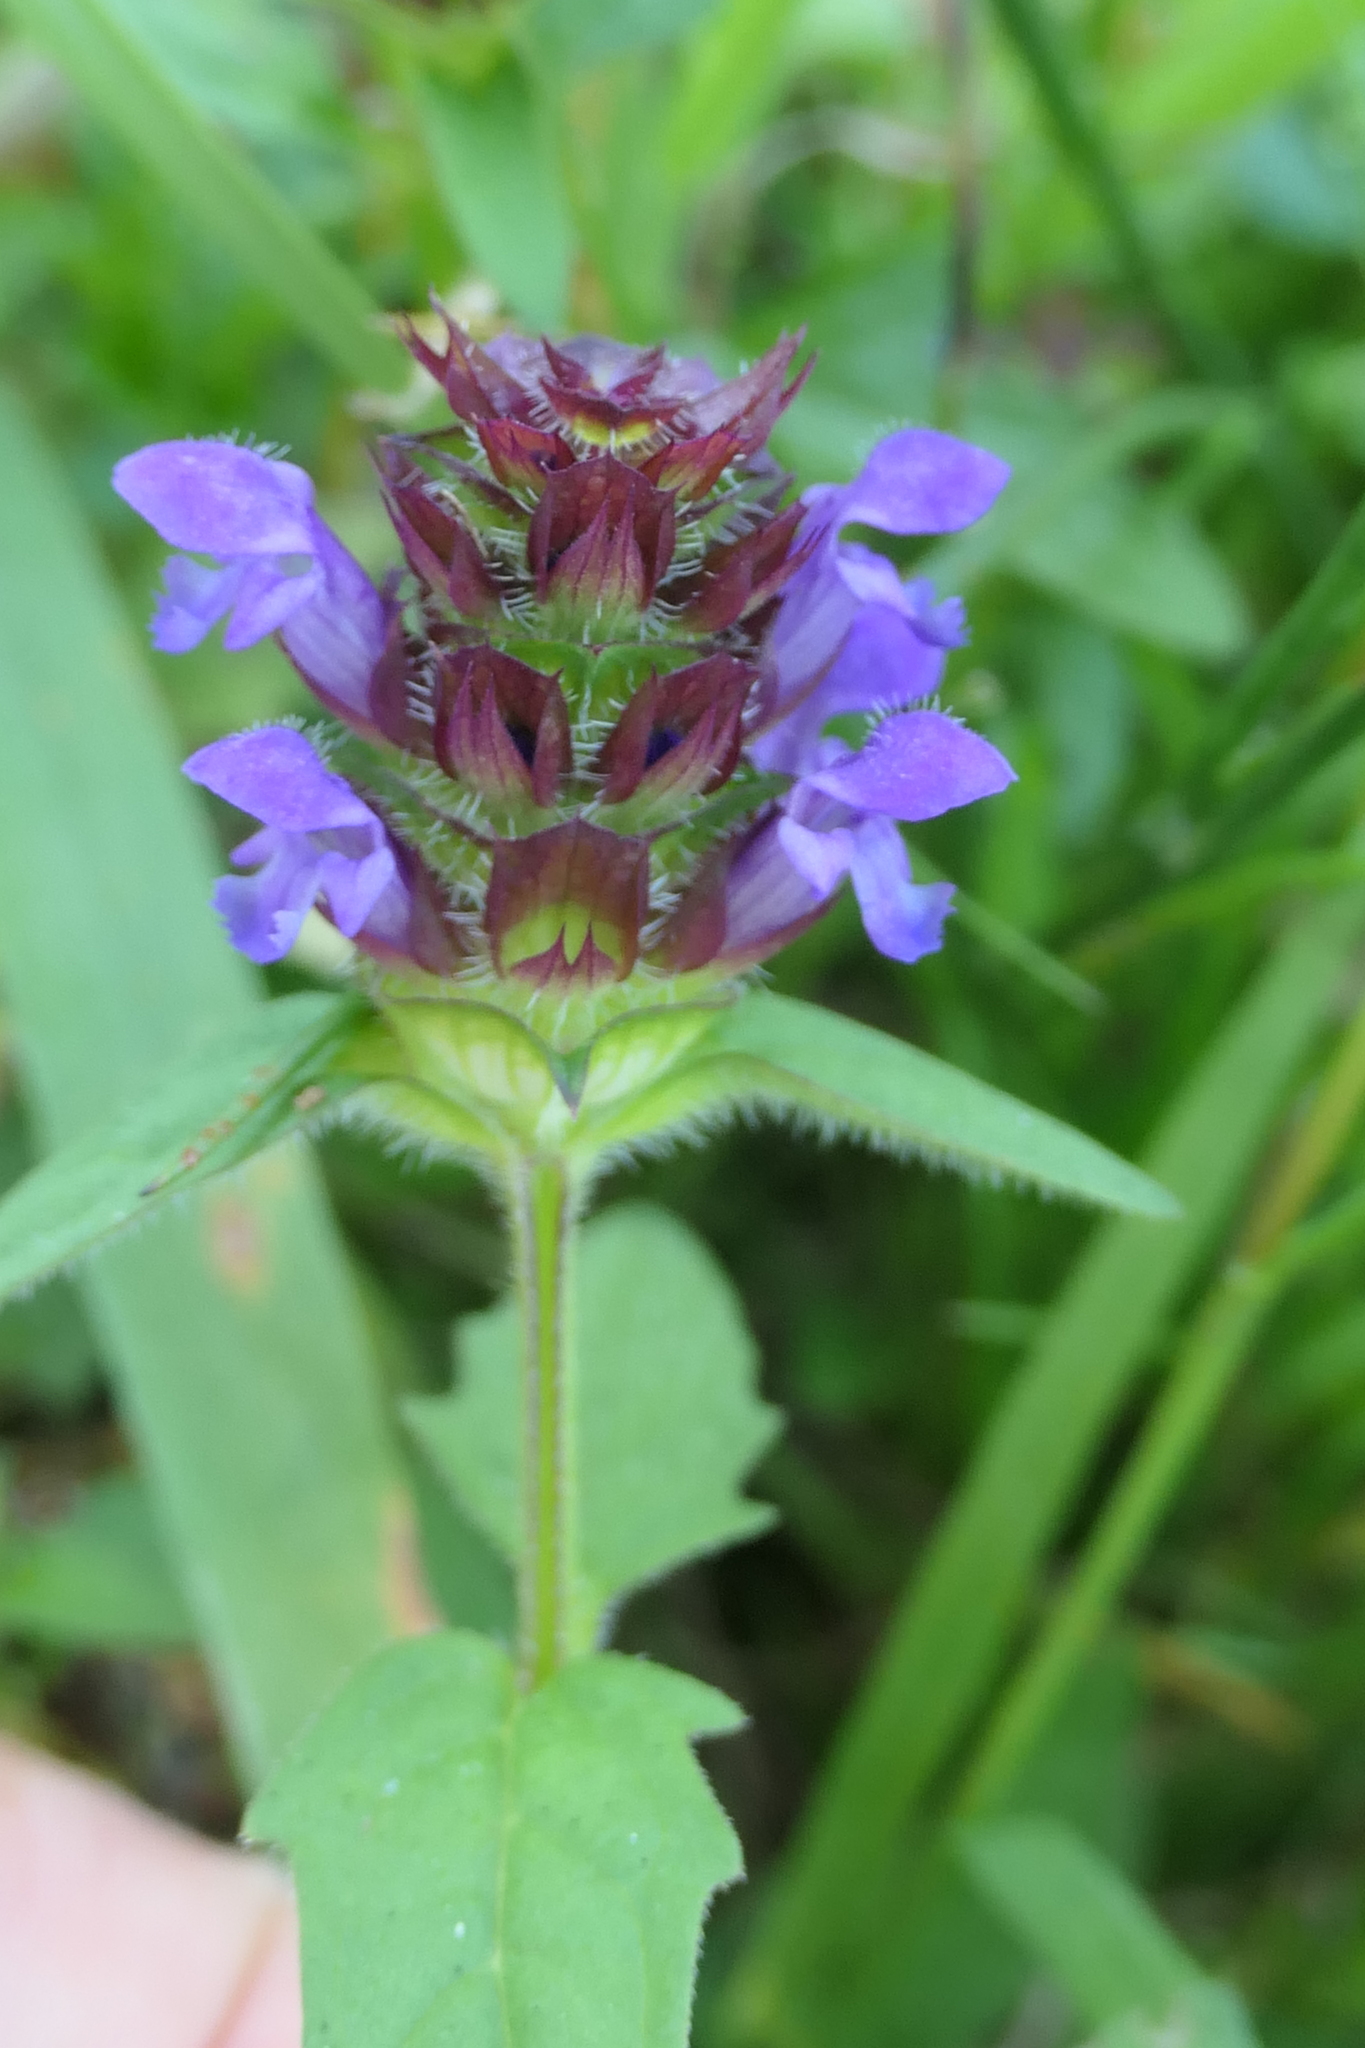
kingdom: Plantae
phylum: Tracheophyta
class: Magnoliopsida
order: Lamiales
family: Lamiaceae
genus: Prunella
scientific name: Prunella vulgaris
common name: Heal-all
